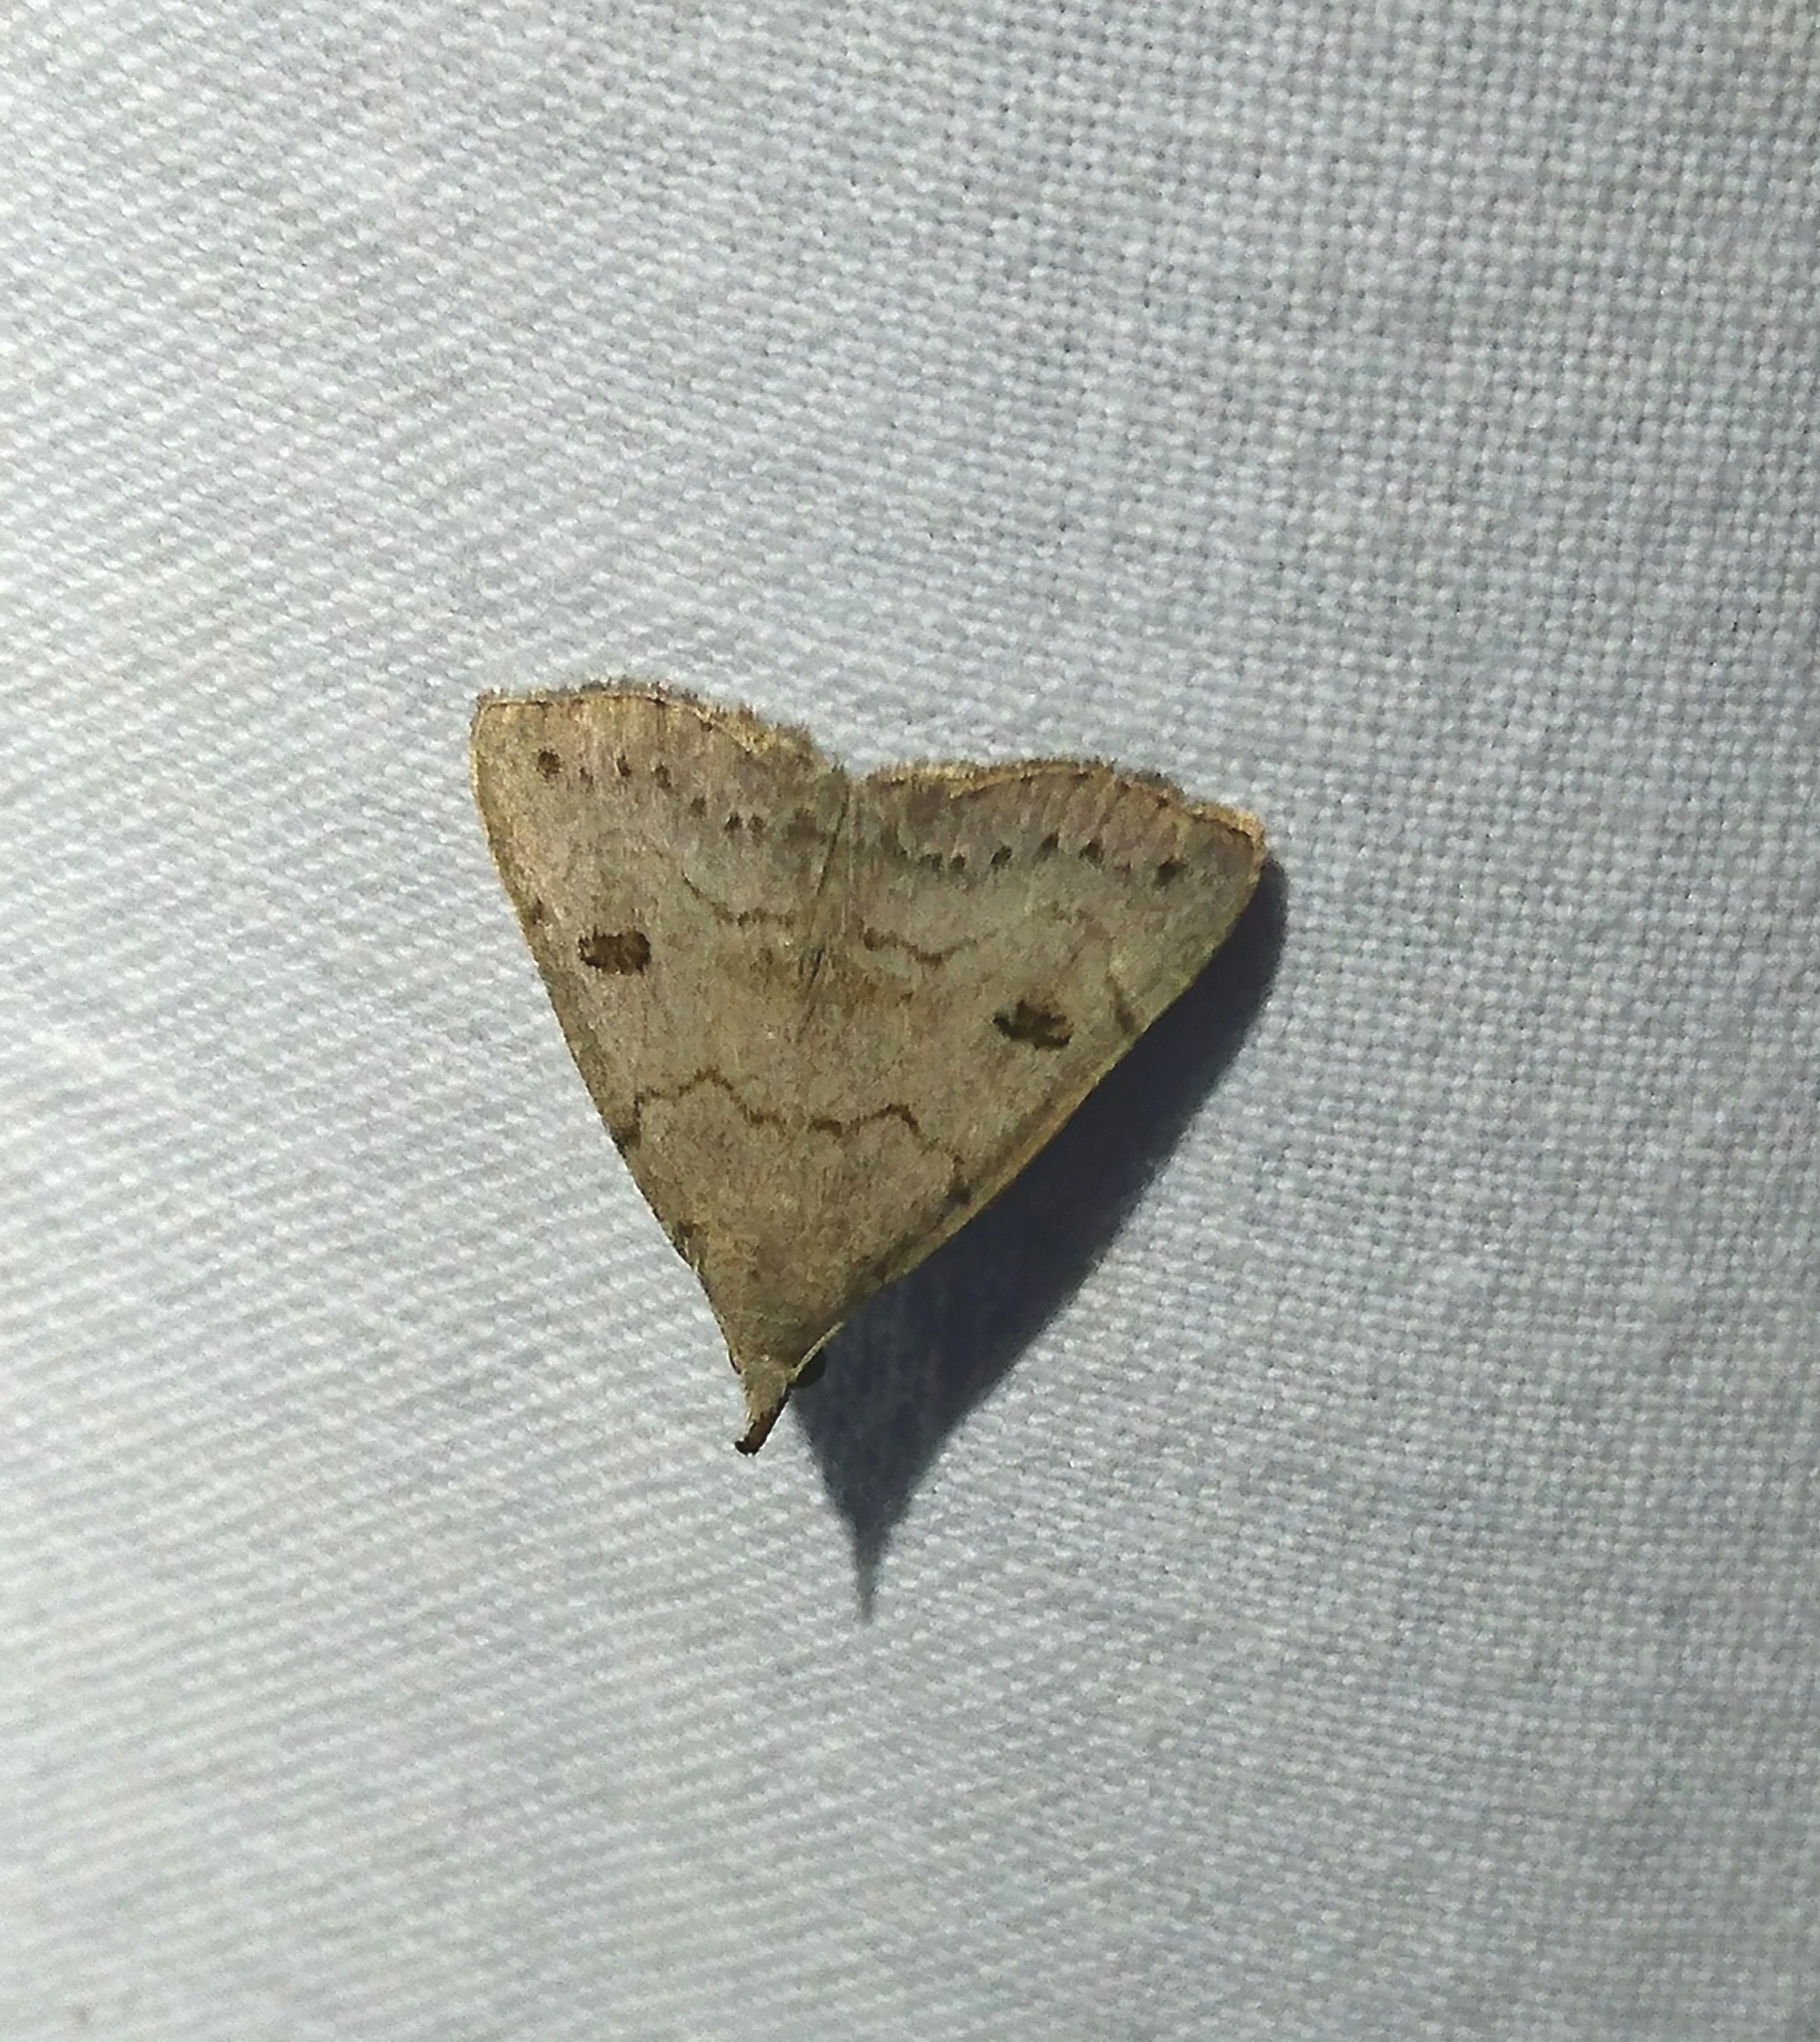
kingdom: Animalia
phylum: Arthropoda
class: Insecta
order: Lepidoptera
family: Erebidae
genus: Macrochilo
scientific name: Macrochilo morbidalis
